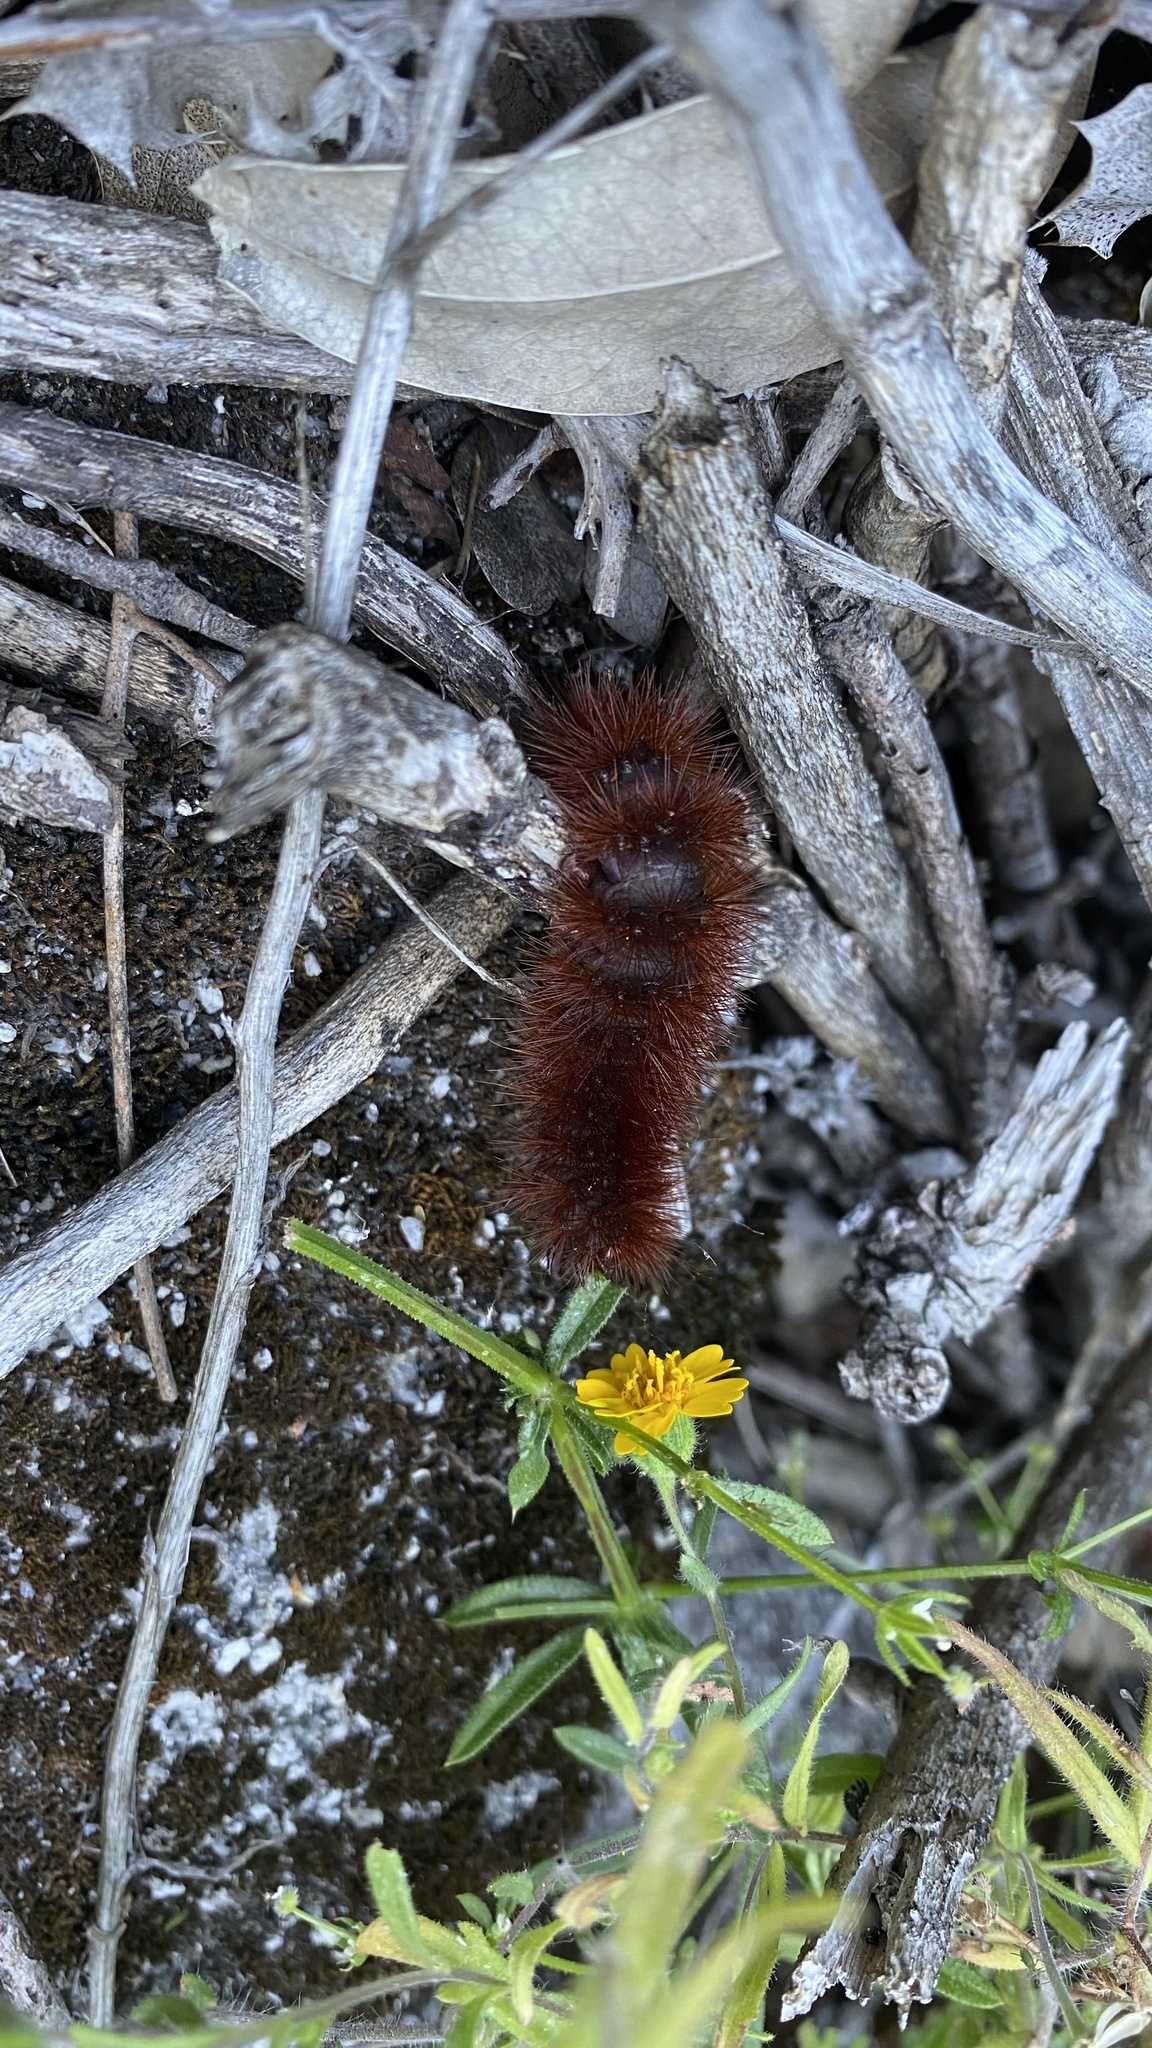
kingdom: Animalia
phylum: Arthropoda
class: Insecta
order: Lepidoptera
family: Erebidae
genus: Arachnis
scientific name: Arachnis picta
